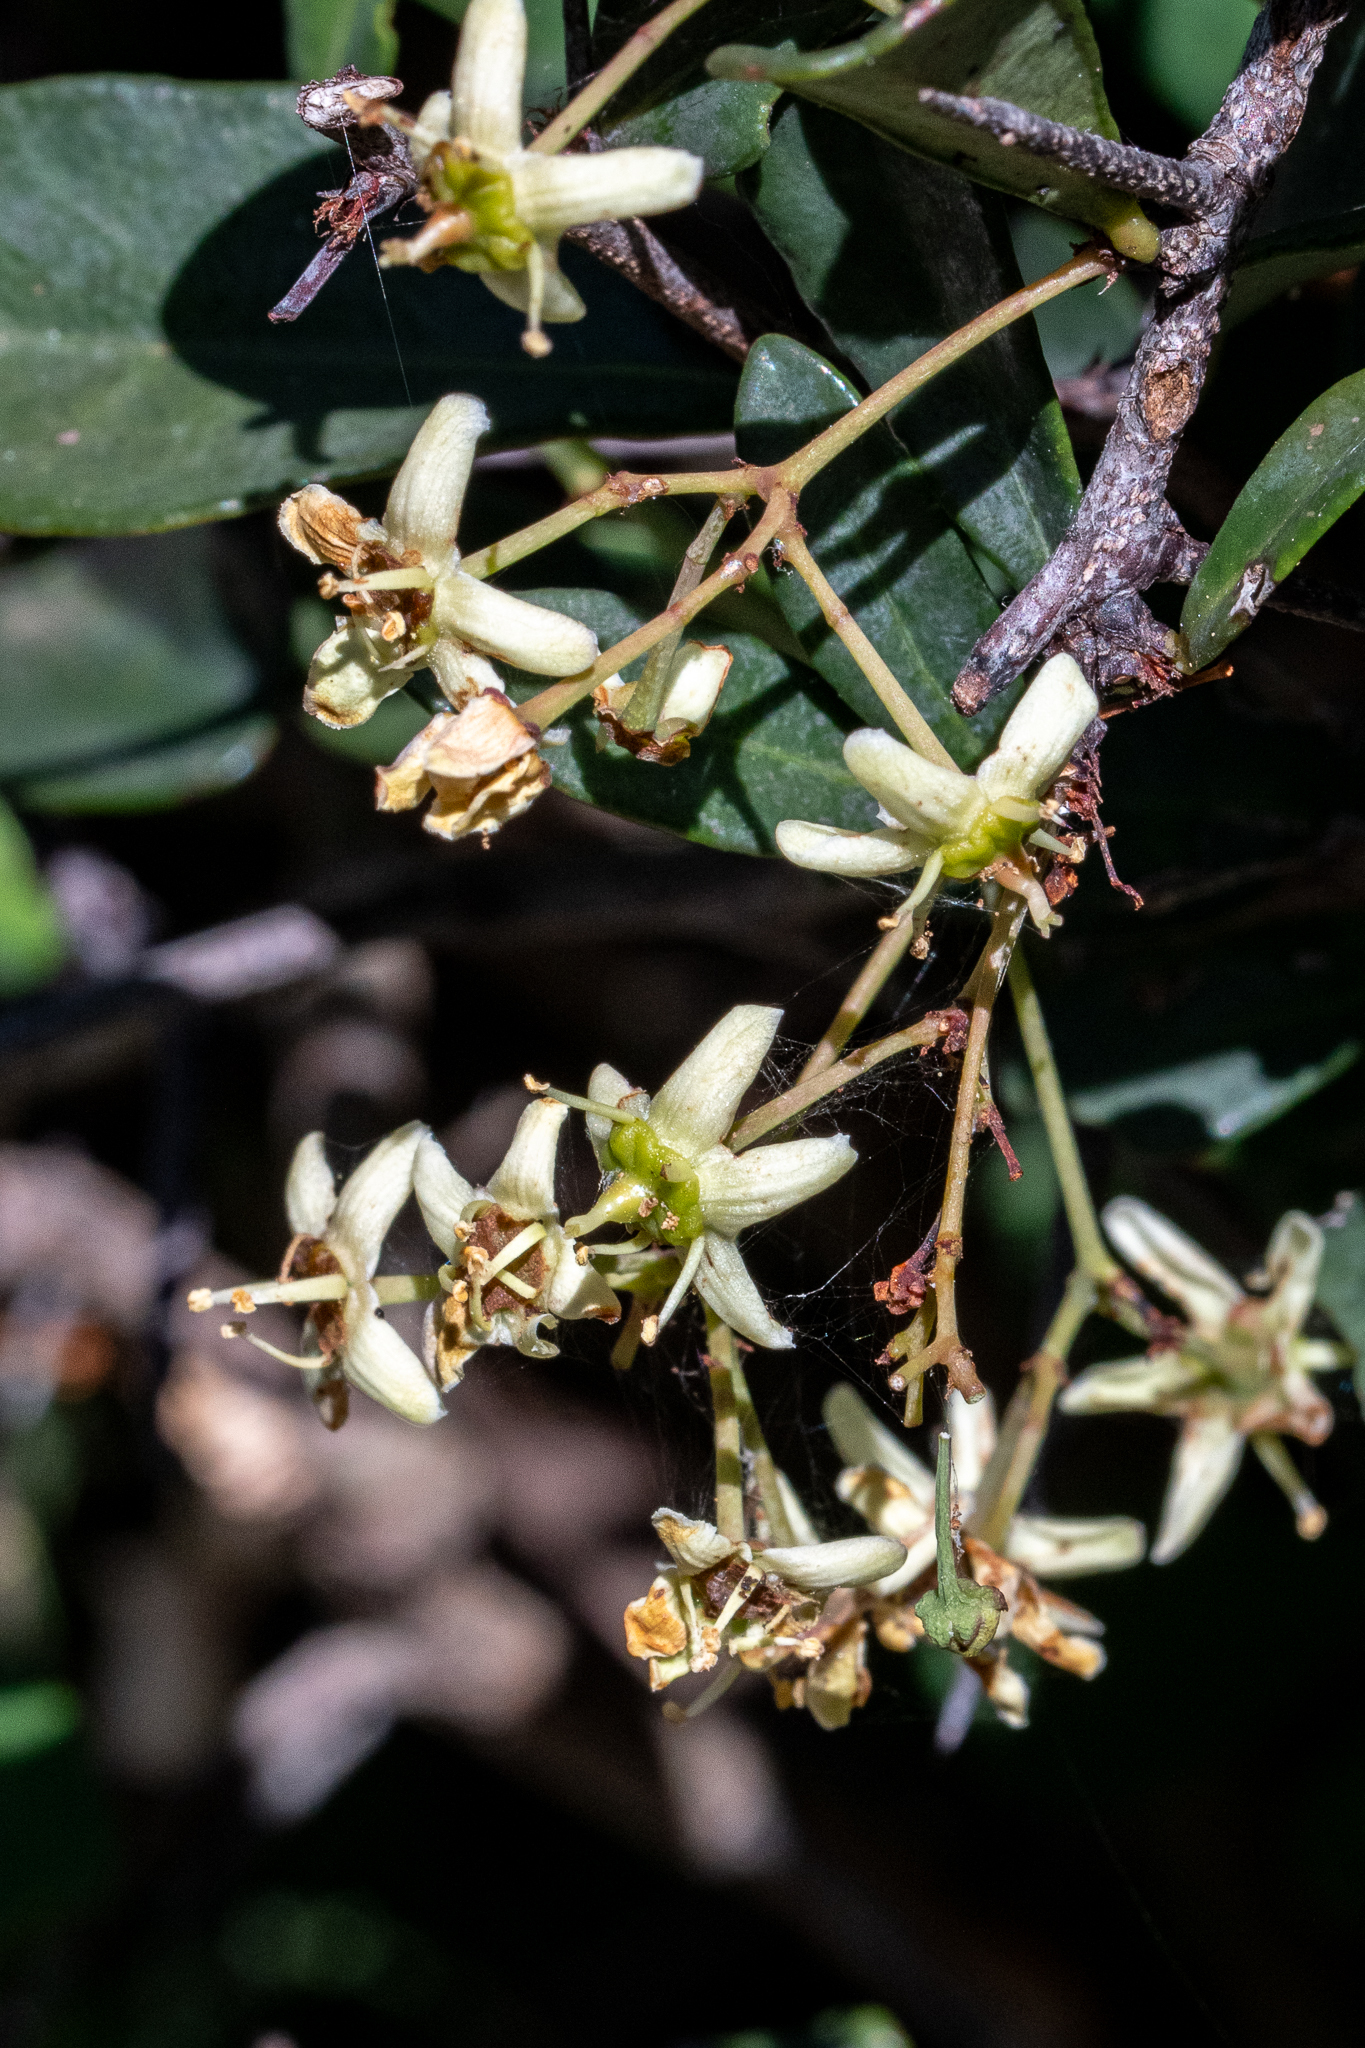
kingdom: Plantae
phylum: Tracheophyta
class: Magnoliopsida
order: Celastrales
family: Celastraceae
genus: Putterlickia
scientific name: Putterlickia pyracantha
